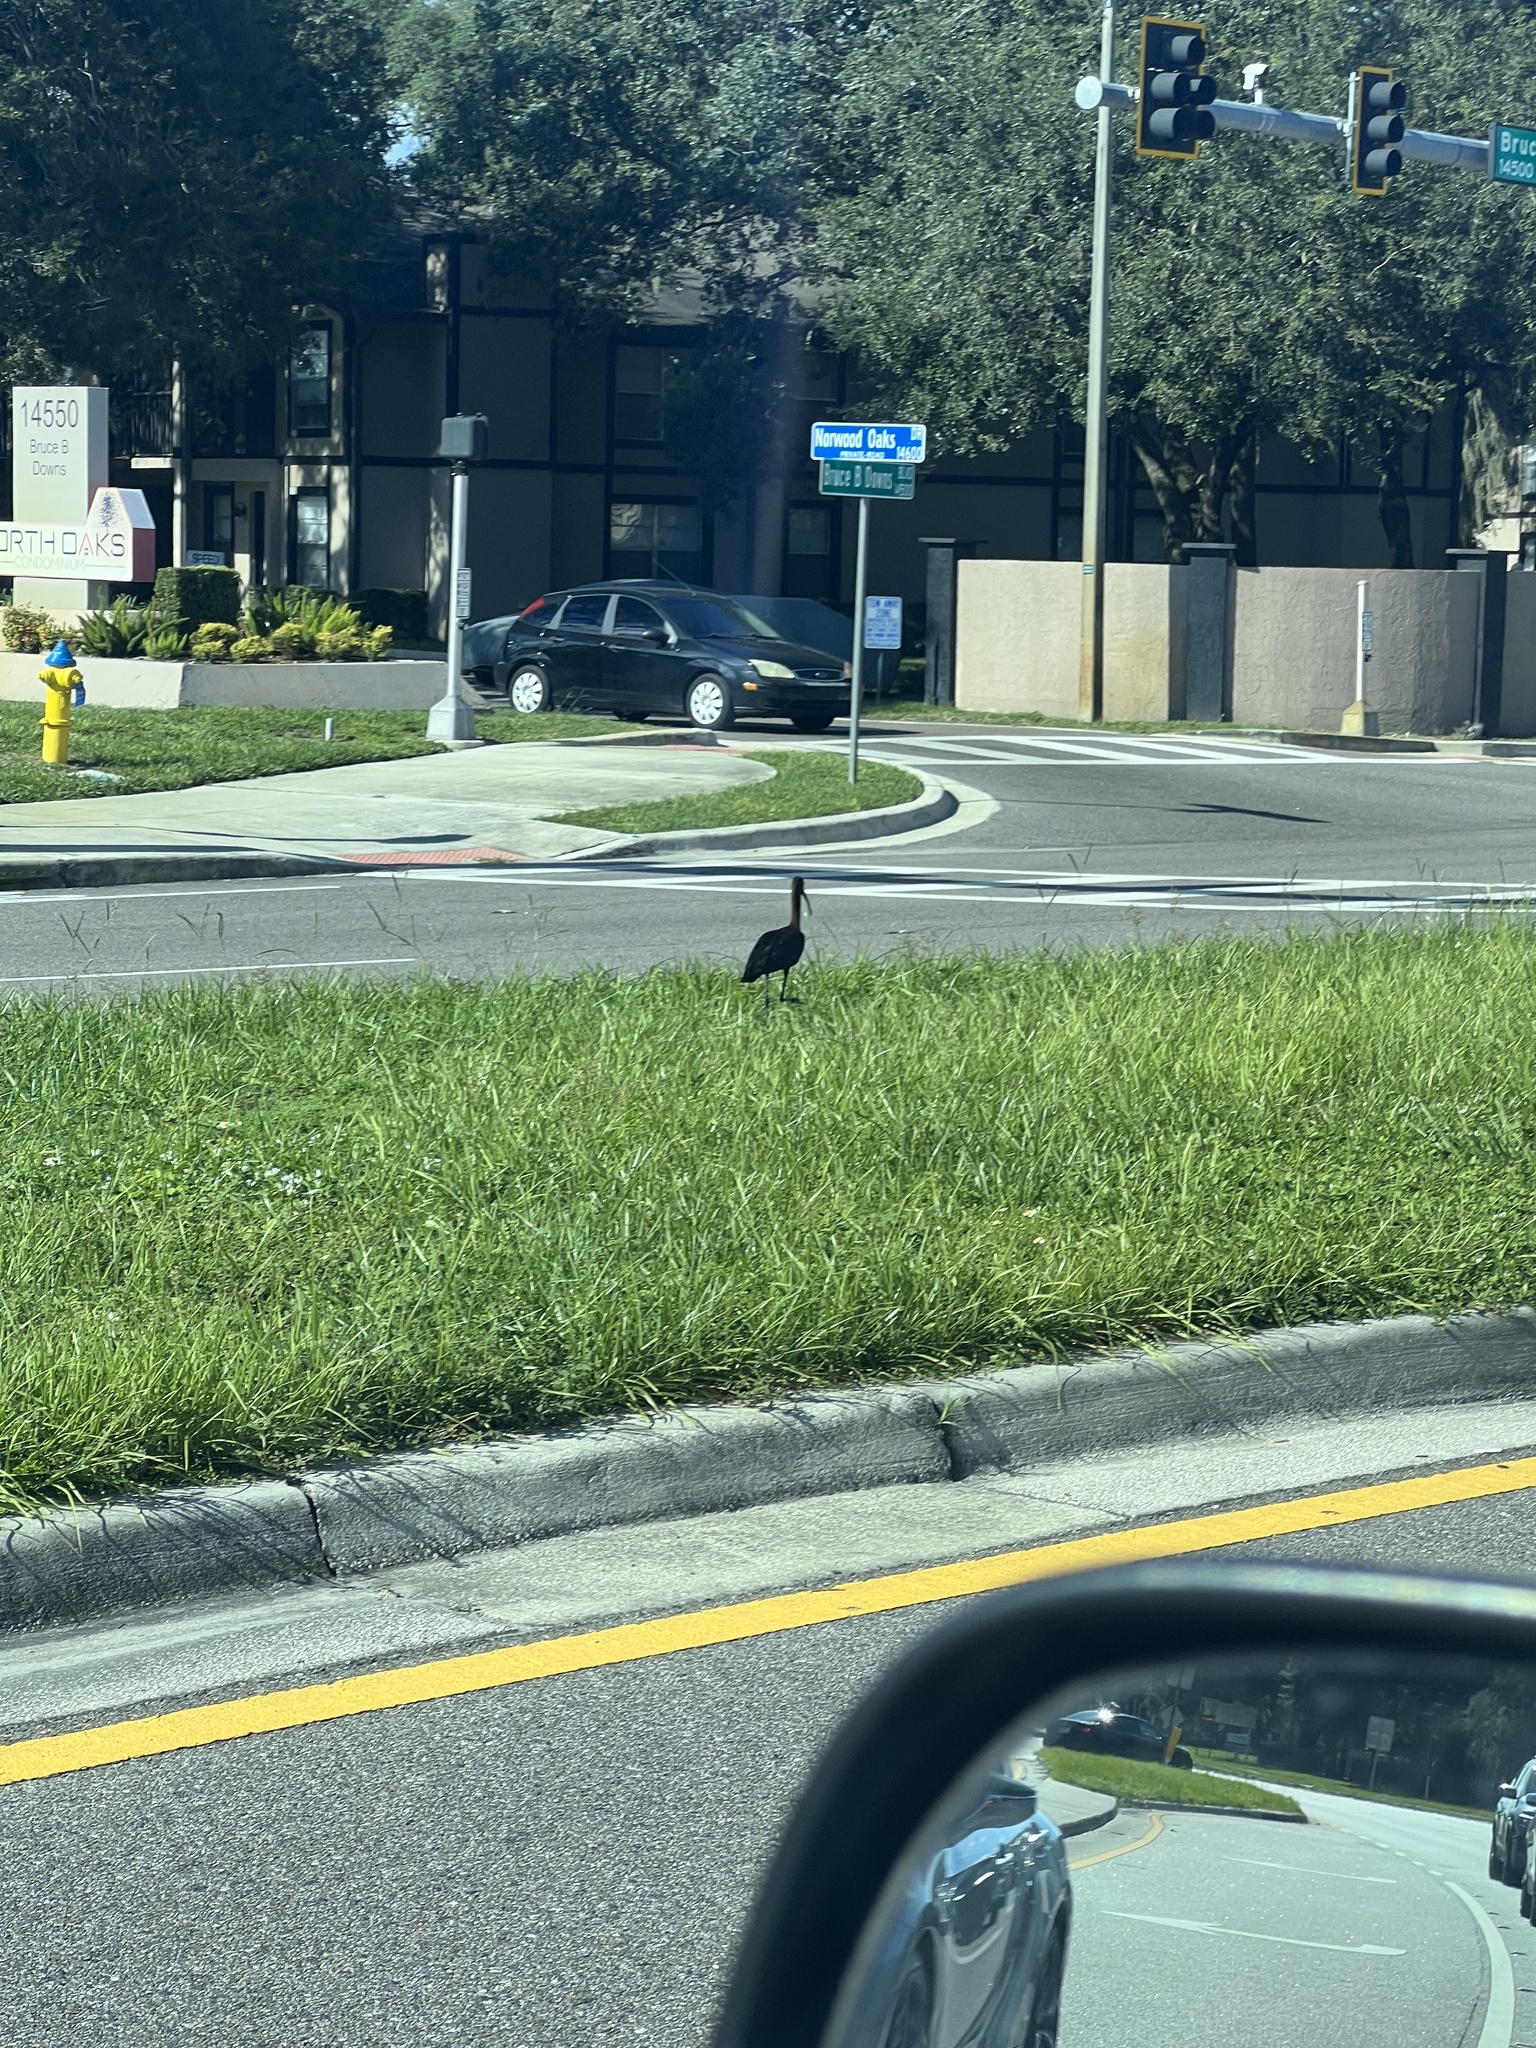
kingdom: Animalia
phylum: Chordata
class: Aves
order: Pelecaniformes
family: Threskiornithidae
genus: Plegadis
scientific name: Plegadis falcinellus
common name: Glossy ibis
